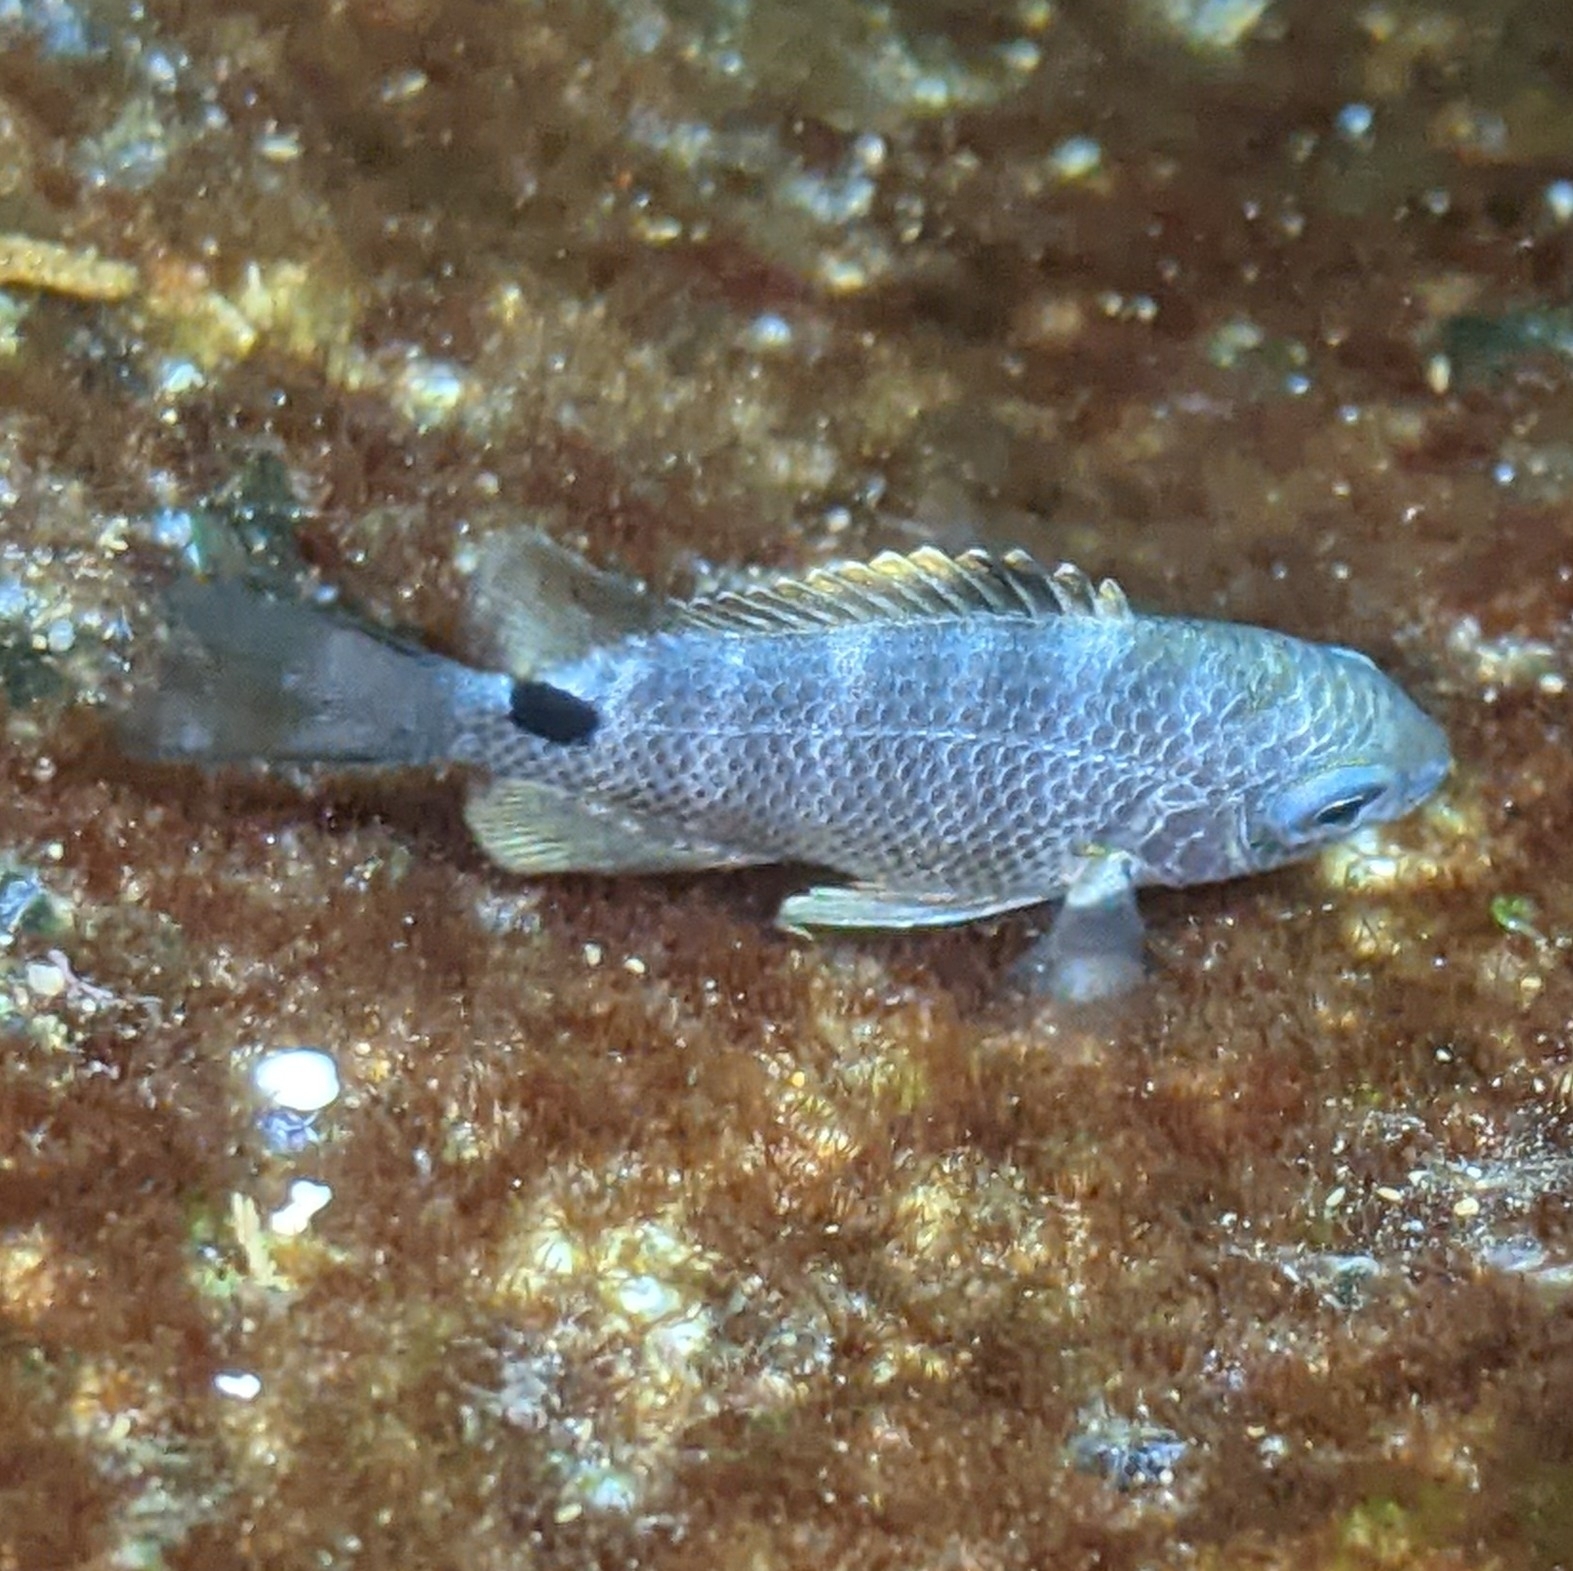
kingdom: Animalia
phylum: Chordata
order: Perciformes
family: Pomacentridae
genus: Abudefduf
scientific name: Abudefduf sordidus
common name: Blackspot sergeant
